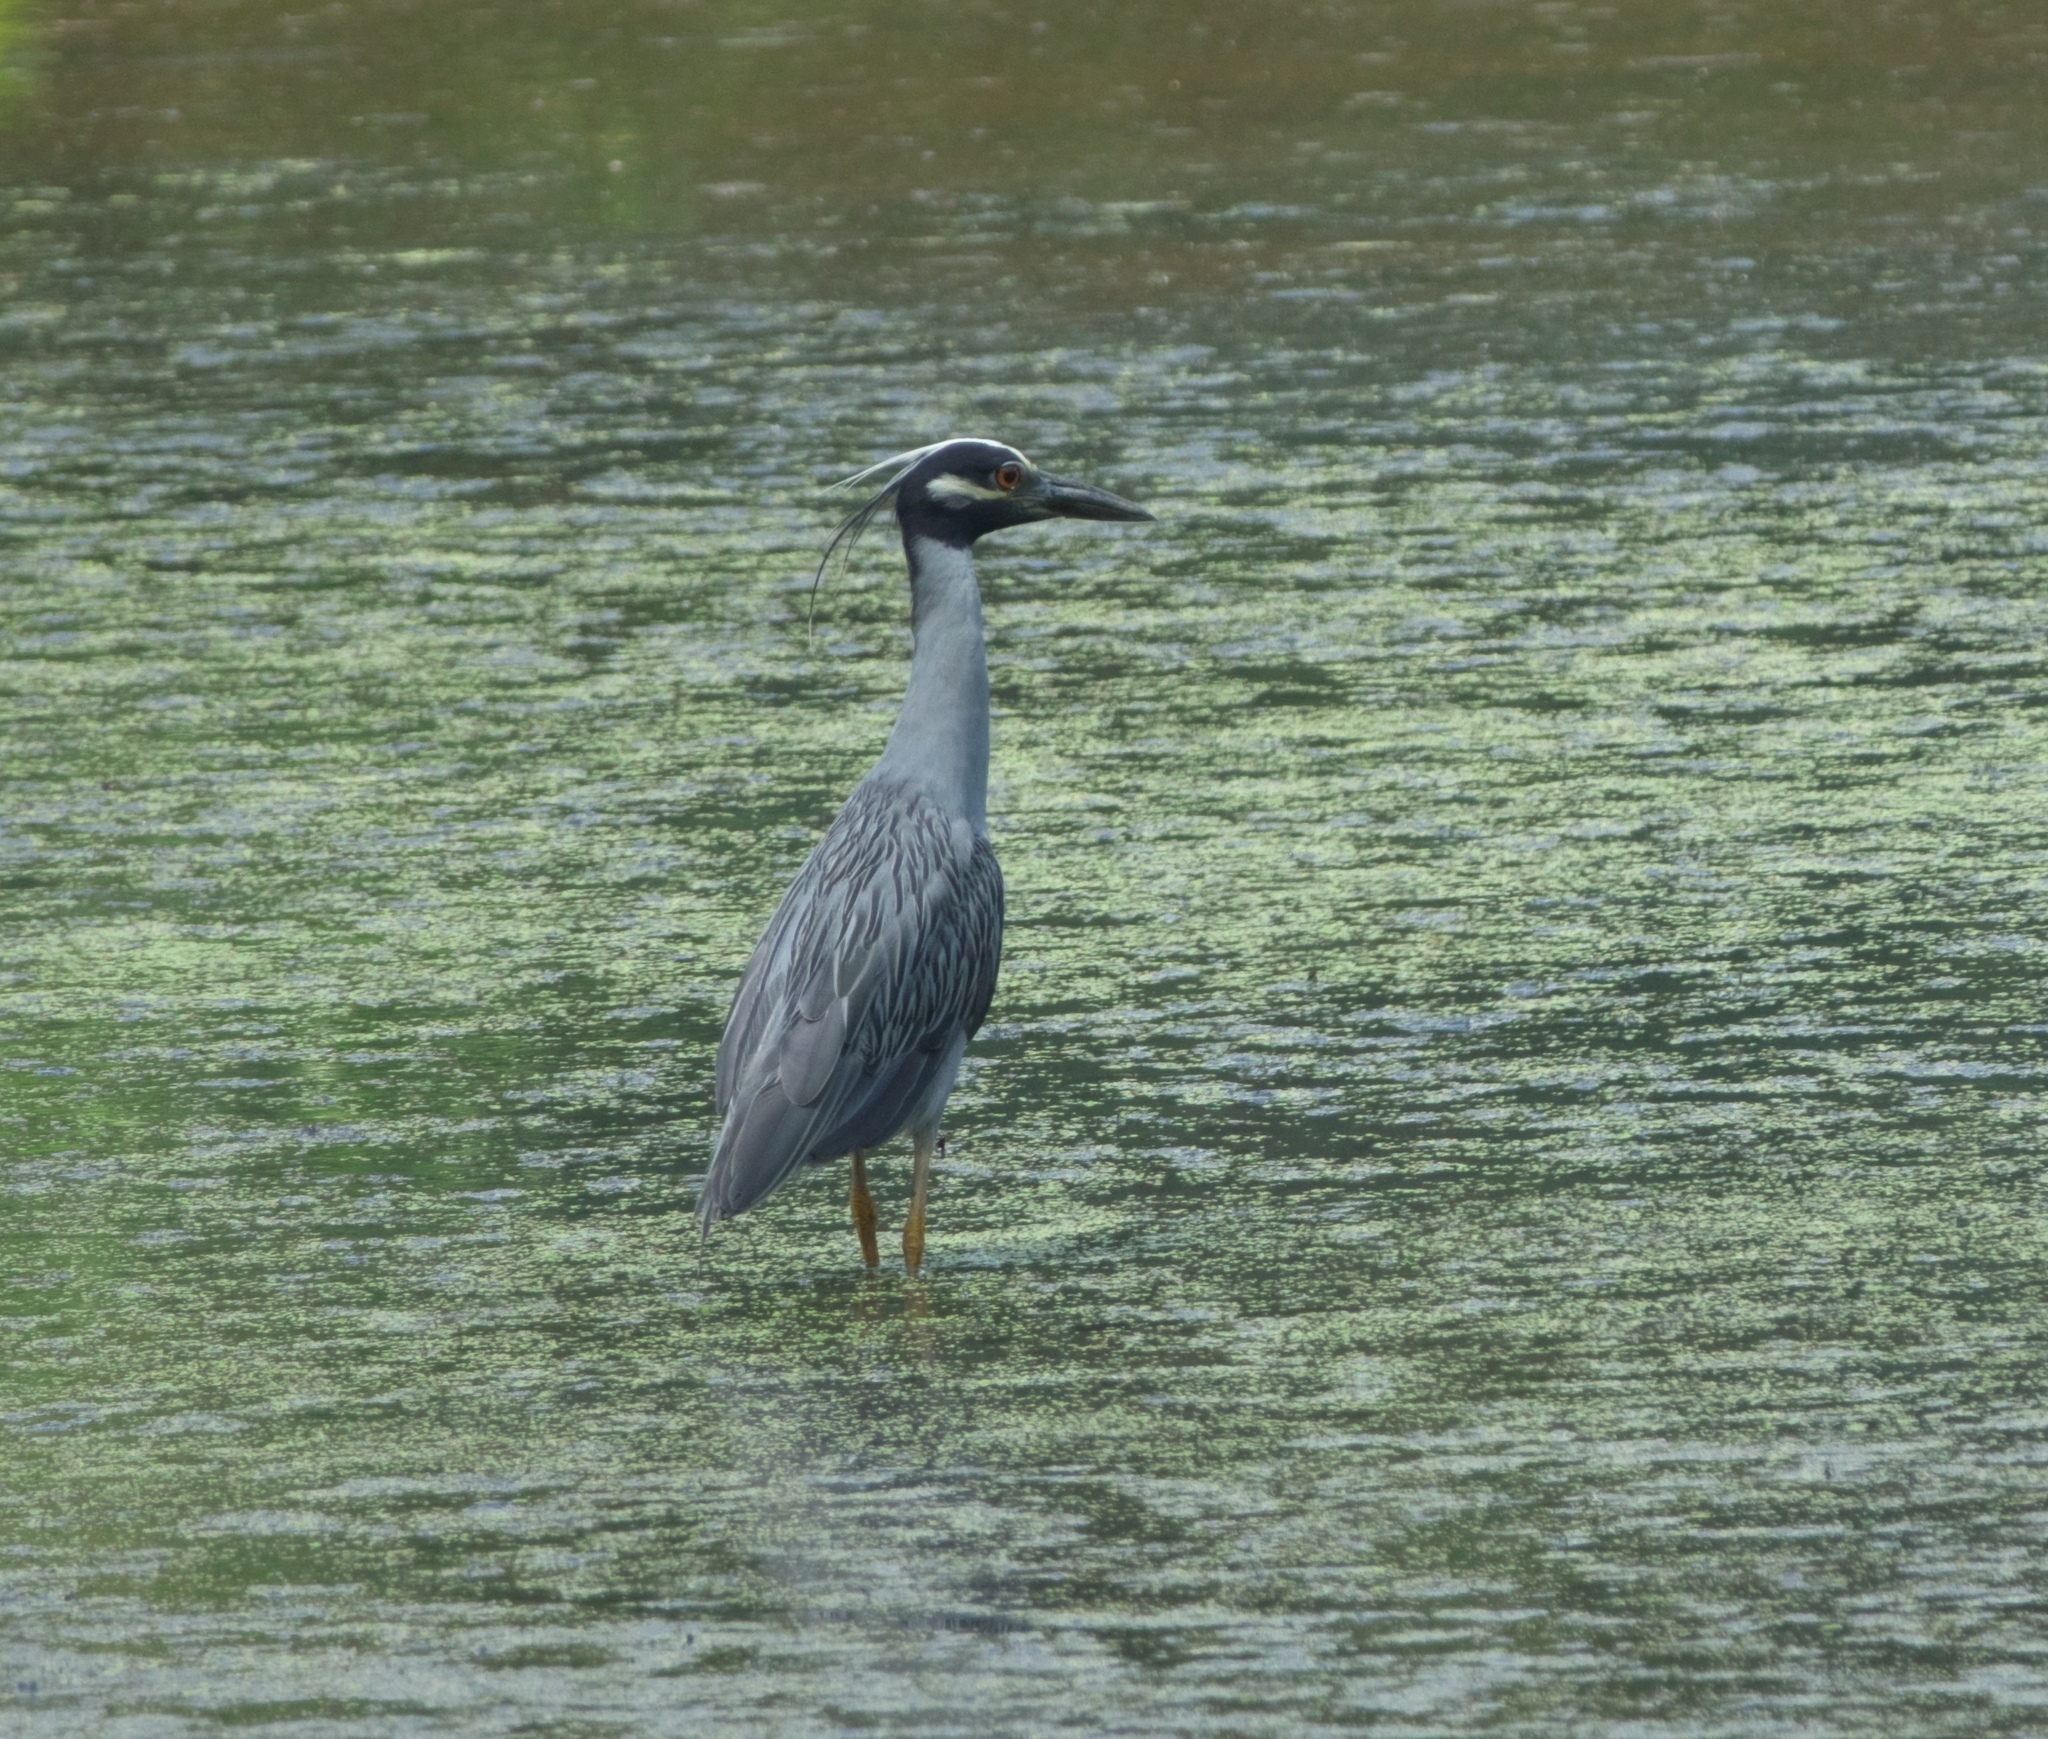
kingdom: Animalia
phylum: Chordata
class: Aves
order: Pelecaniformes
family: Ardeidae
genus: Nyctanassa
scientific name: Nyctanassa violacea
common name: Yellow-crowned night heron
